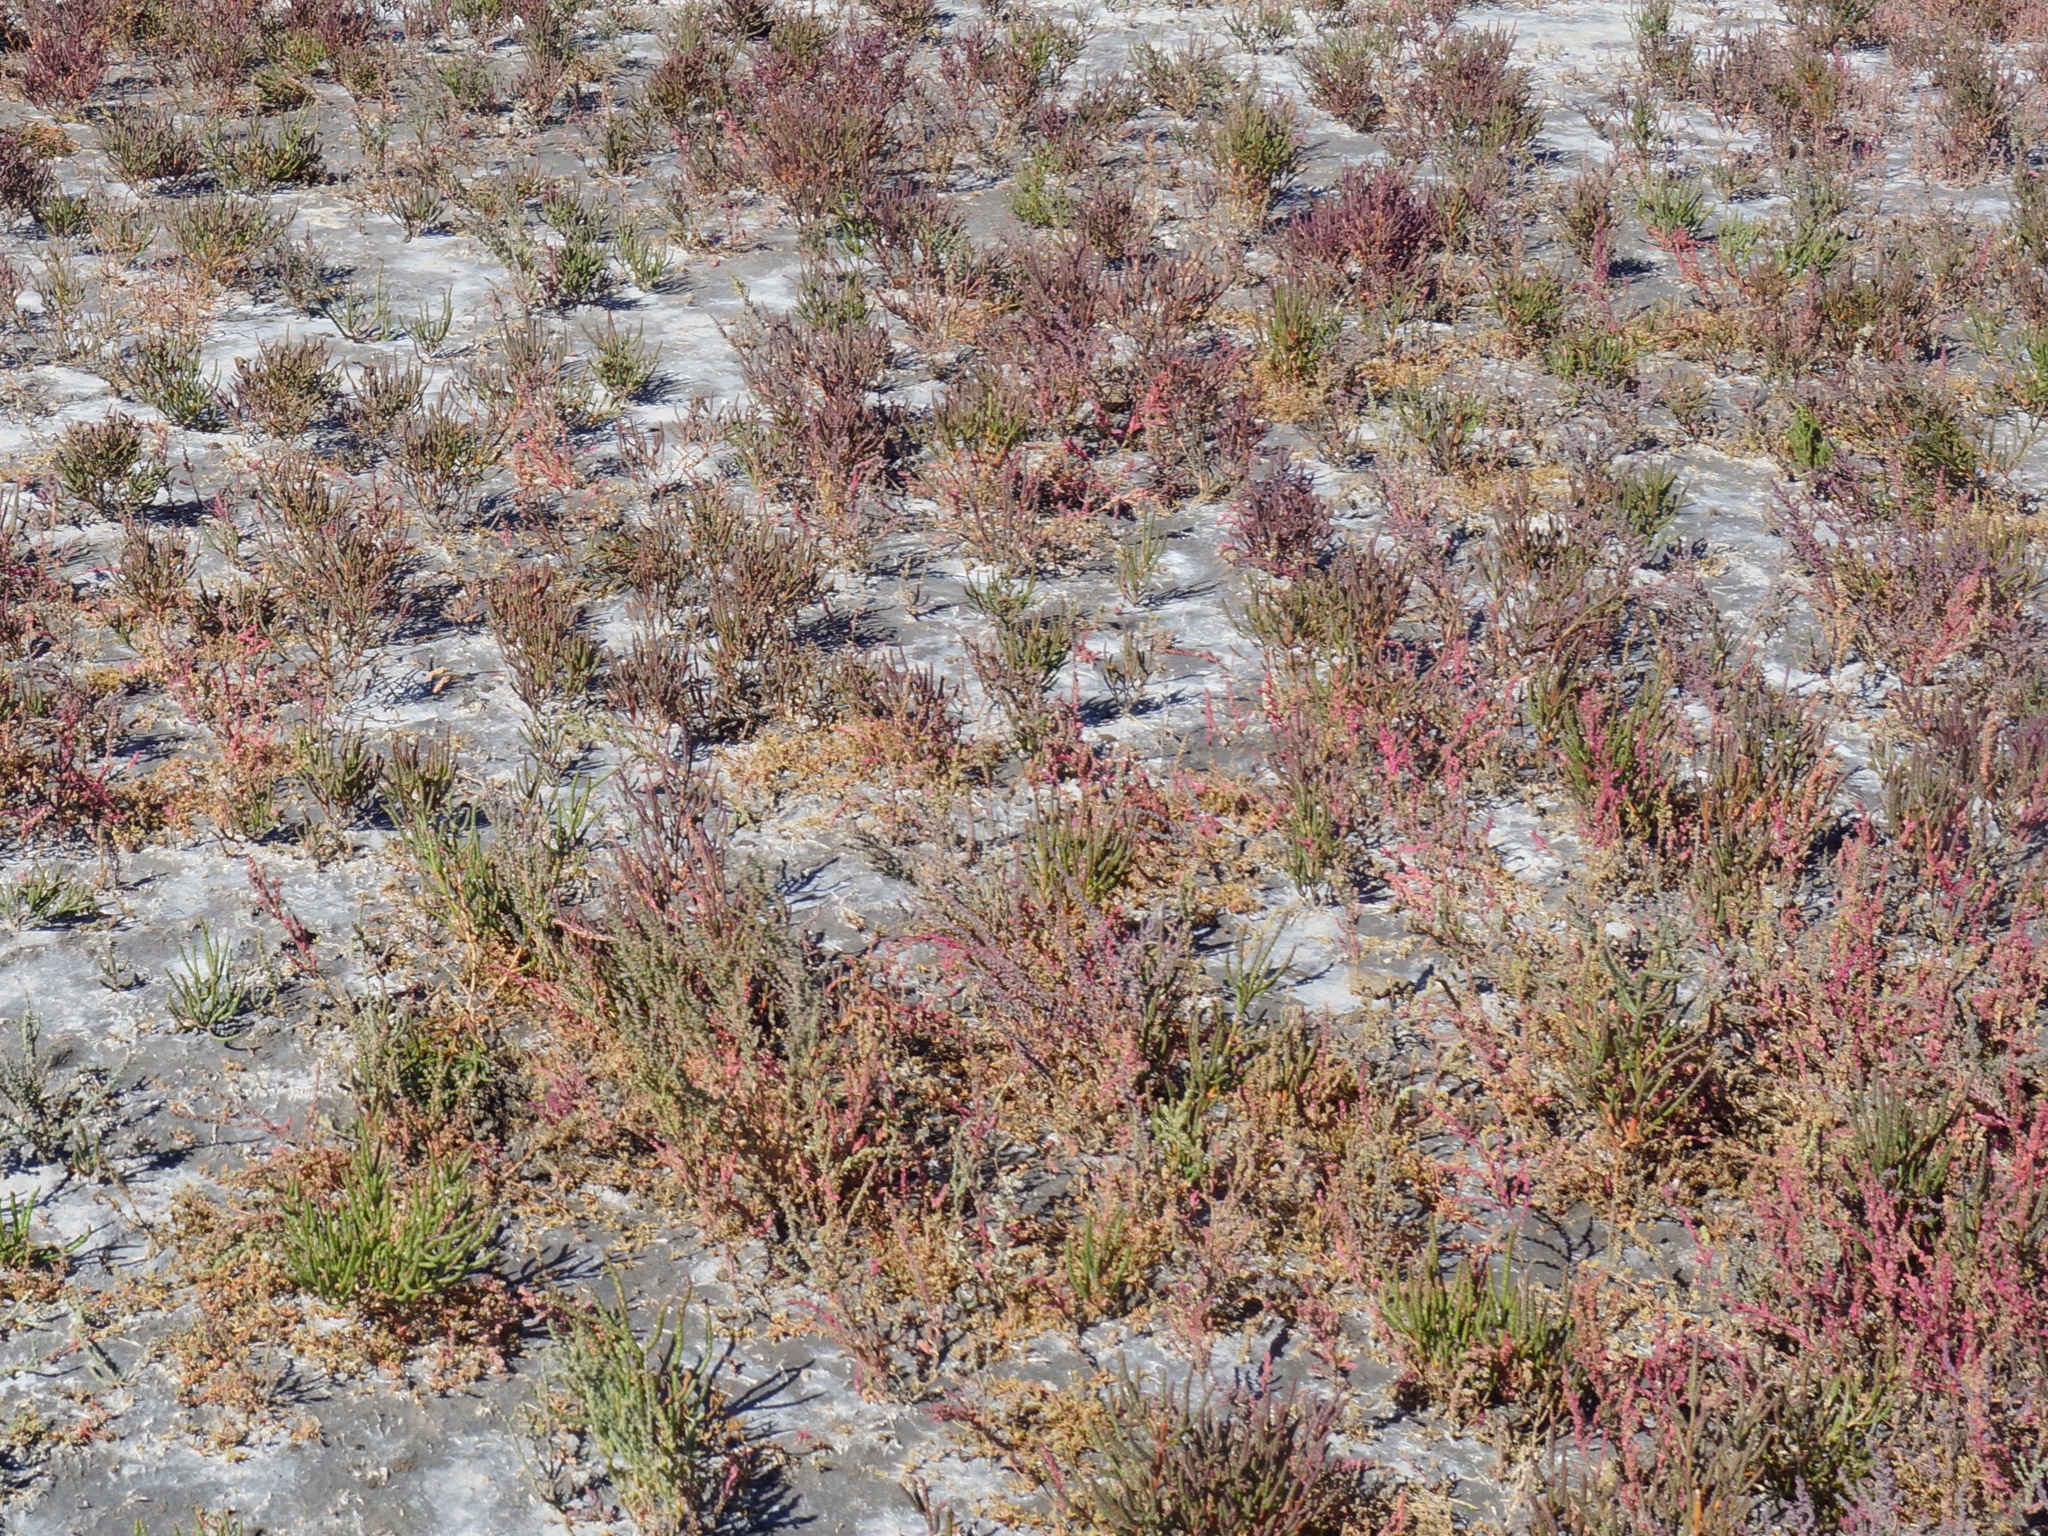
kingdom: Plantae
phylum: Tracheophyta
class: Magnoliopsida
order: Caryophyllales
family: Amaranthaceae
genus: Salicornia
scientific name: Salicornia perennans
